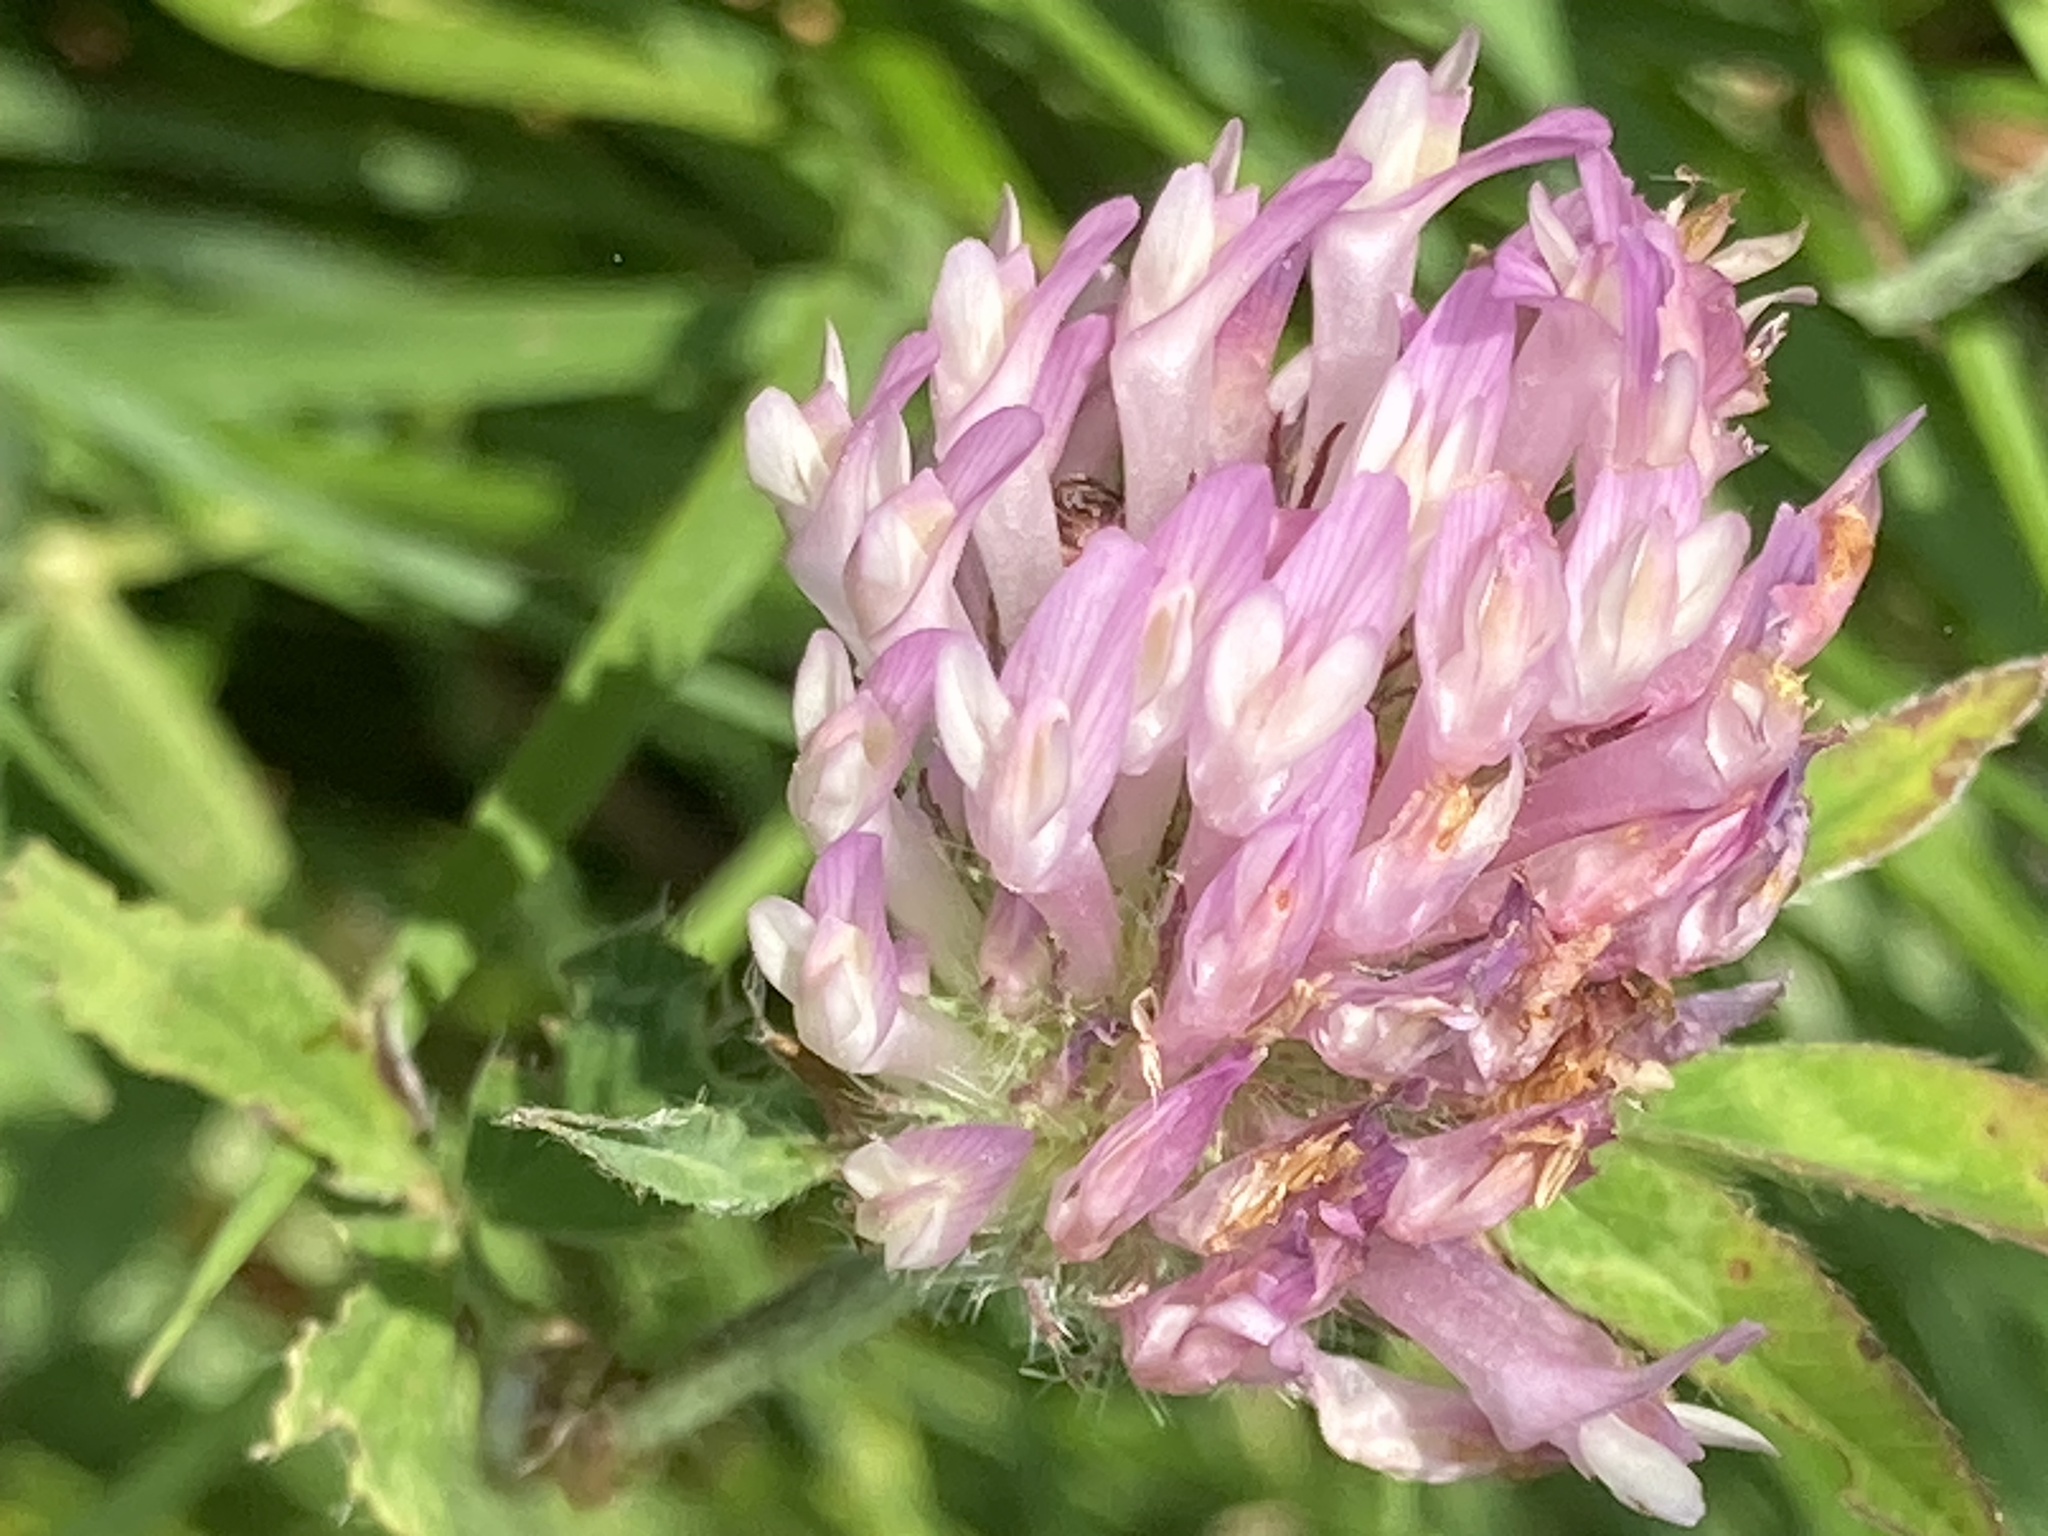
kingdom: Plantae
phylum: Tracheophyta
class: Magnoliopsida
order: Fabales
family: Fabaceae
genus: Trifolium
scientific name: Trifolium pratense
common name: Red clover
